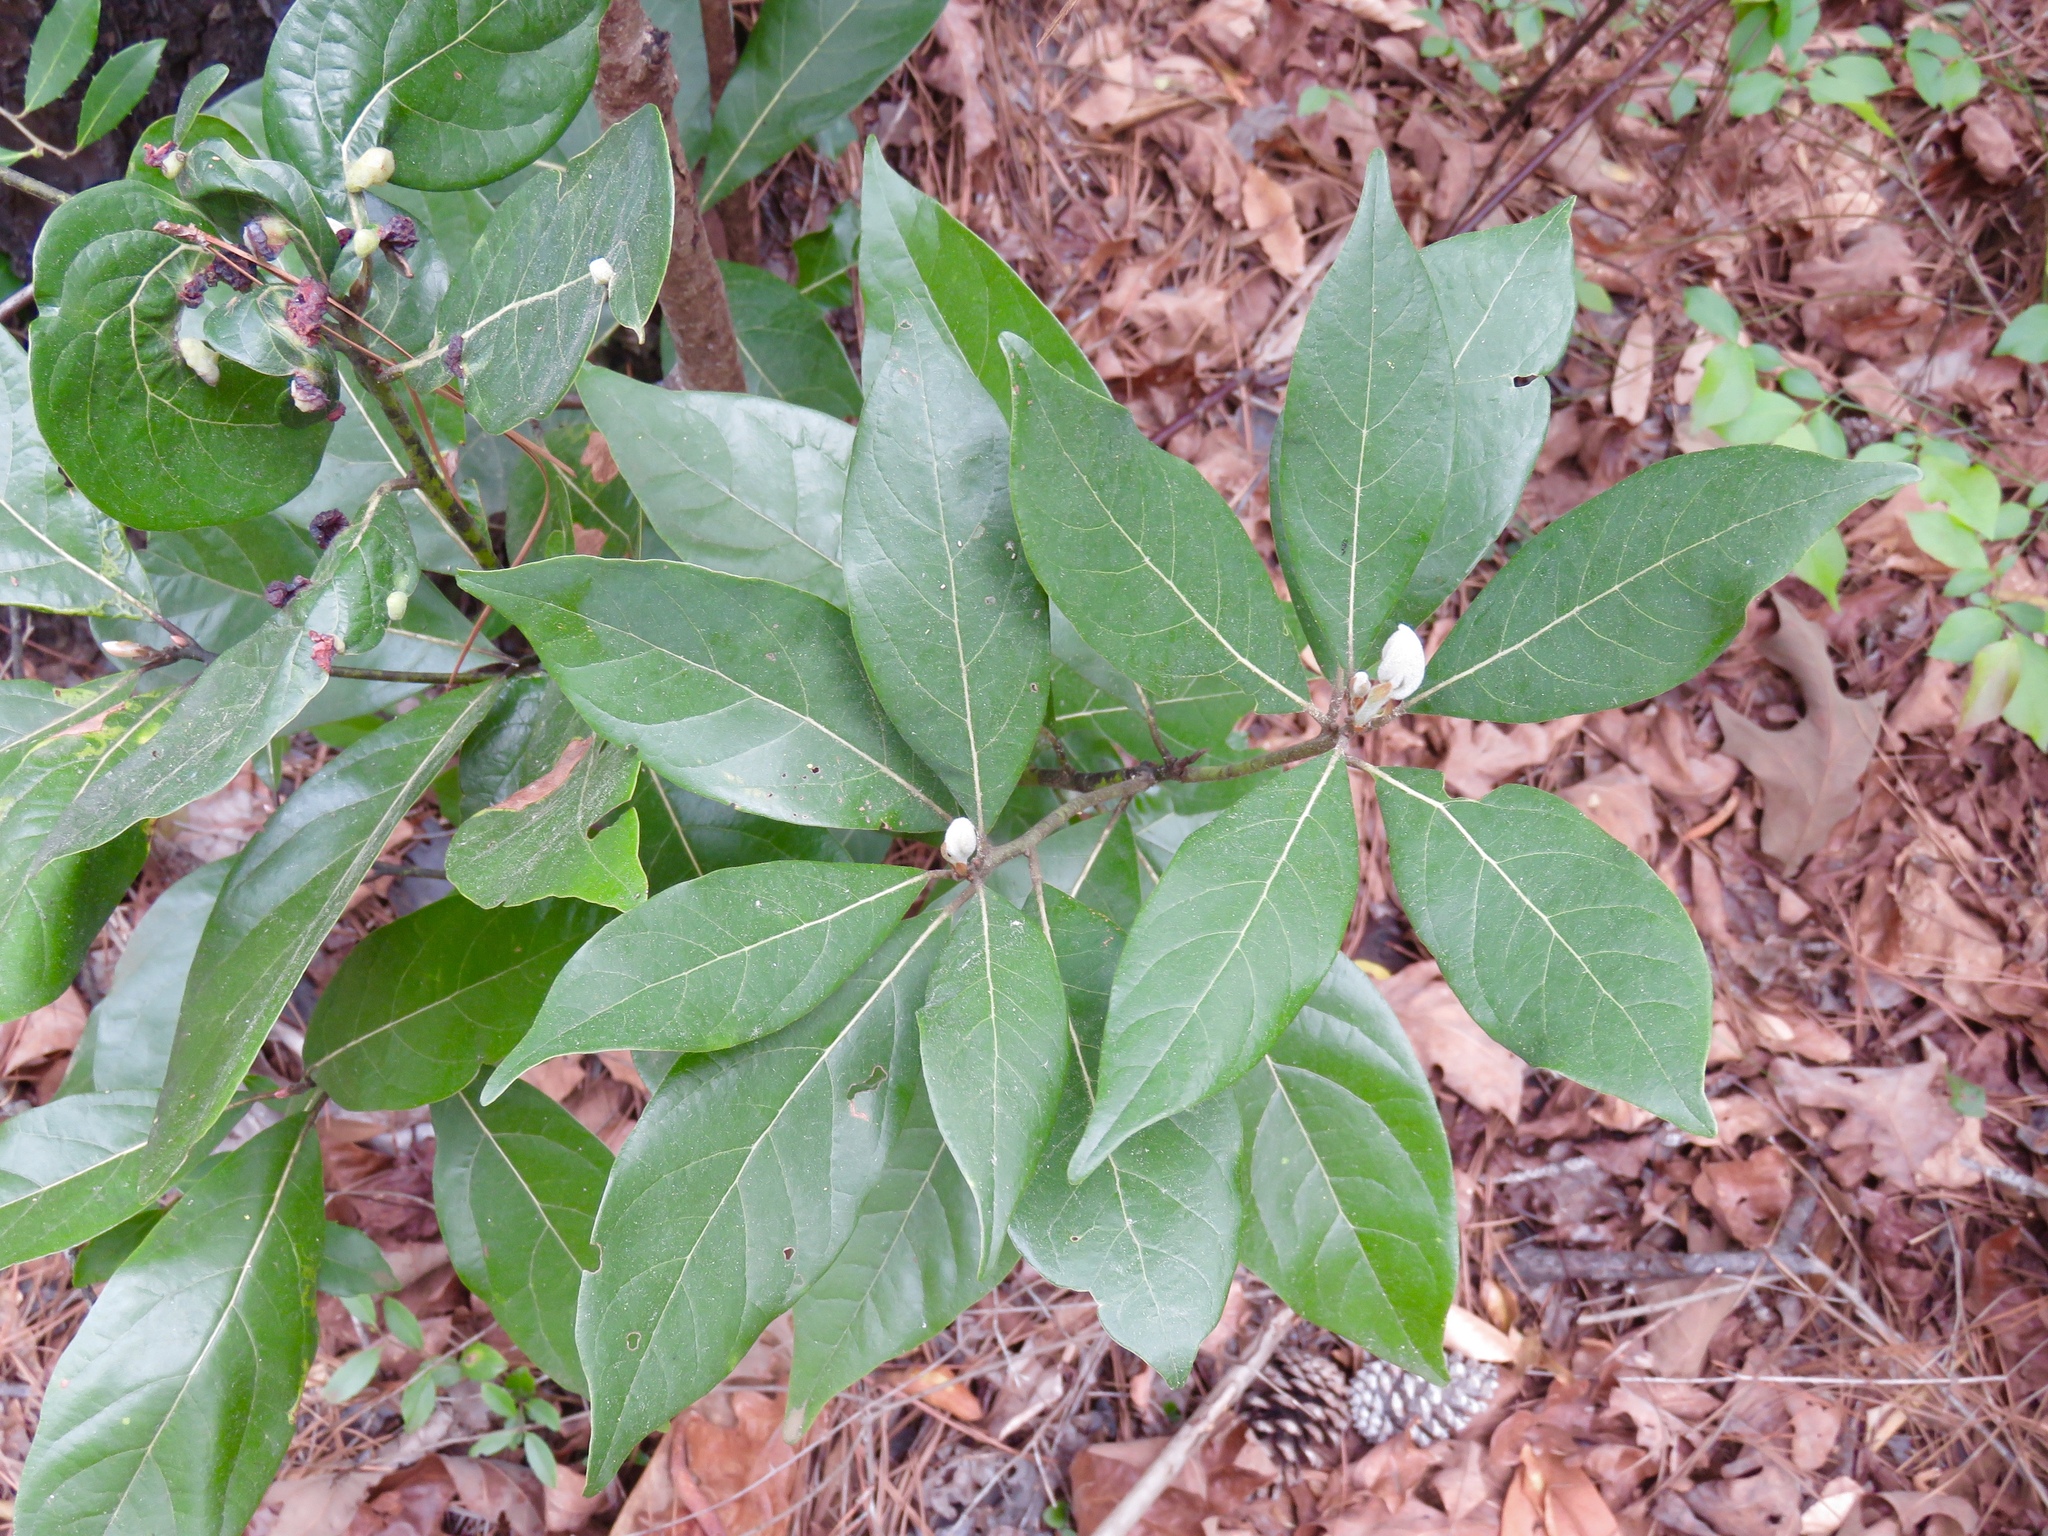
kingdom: Plantae
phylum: Tracheophyta
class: Magnoliopsida
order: Laurales
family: Lauraceae
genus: Persea
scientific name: Persea borbonia
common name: Redbay
